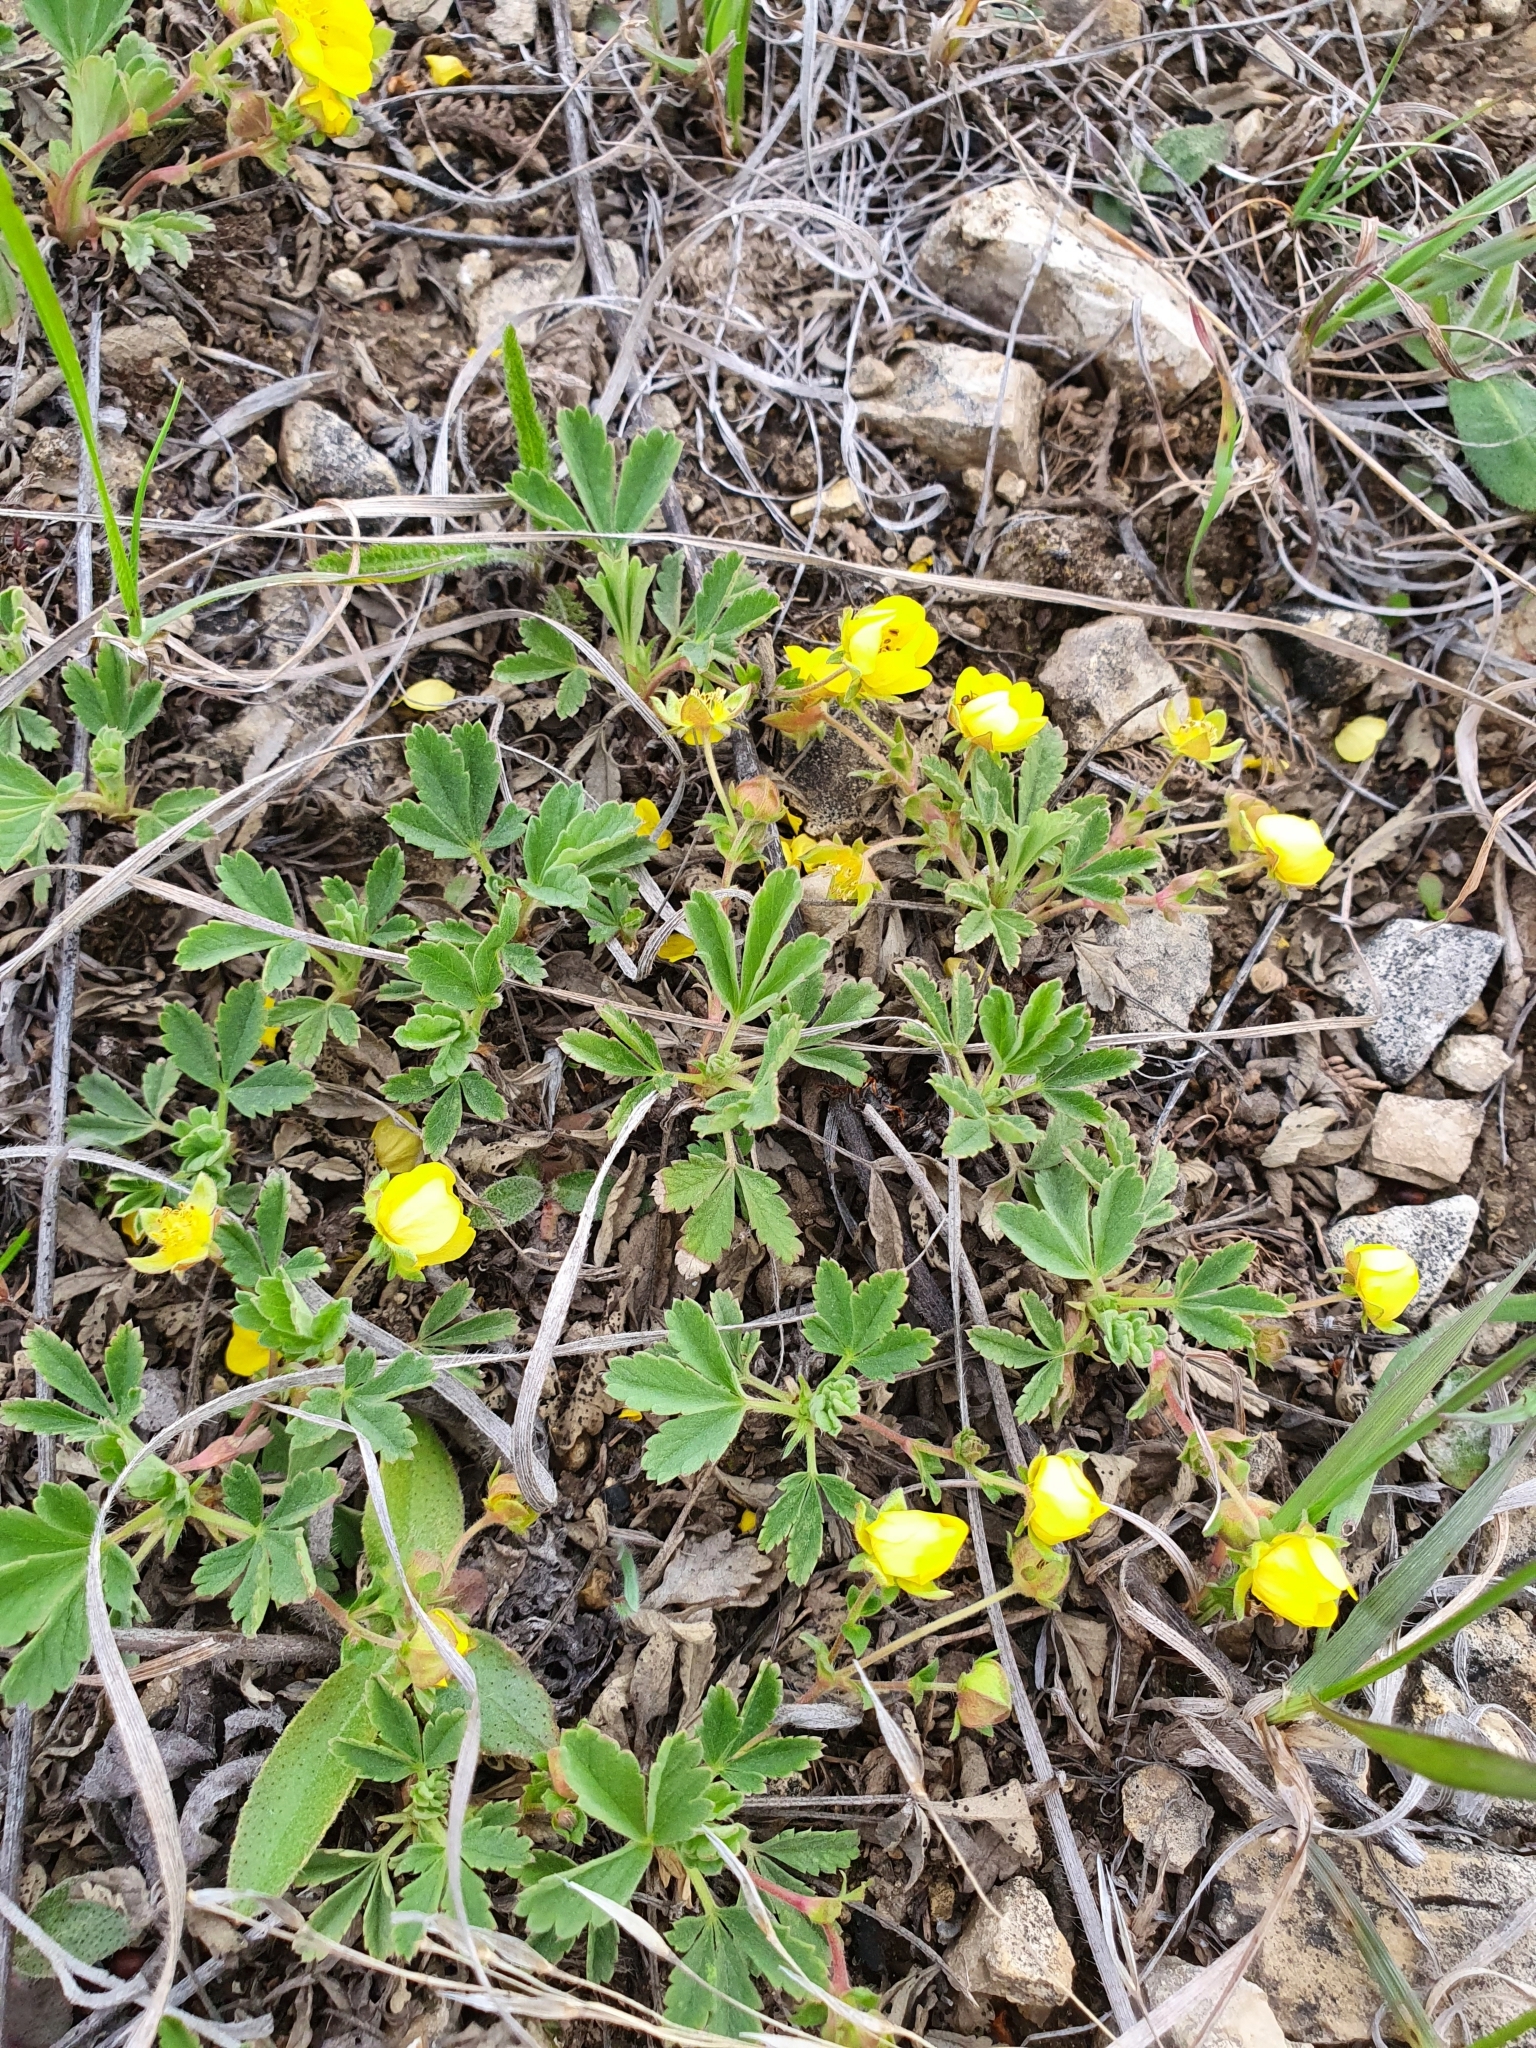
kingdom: Plantae
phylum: Tracheophyta
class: Magnoliopsida
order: Rosales
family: Rosaceae
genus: Potentilla
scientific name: Potentilla incana
